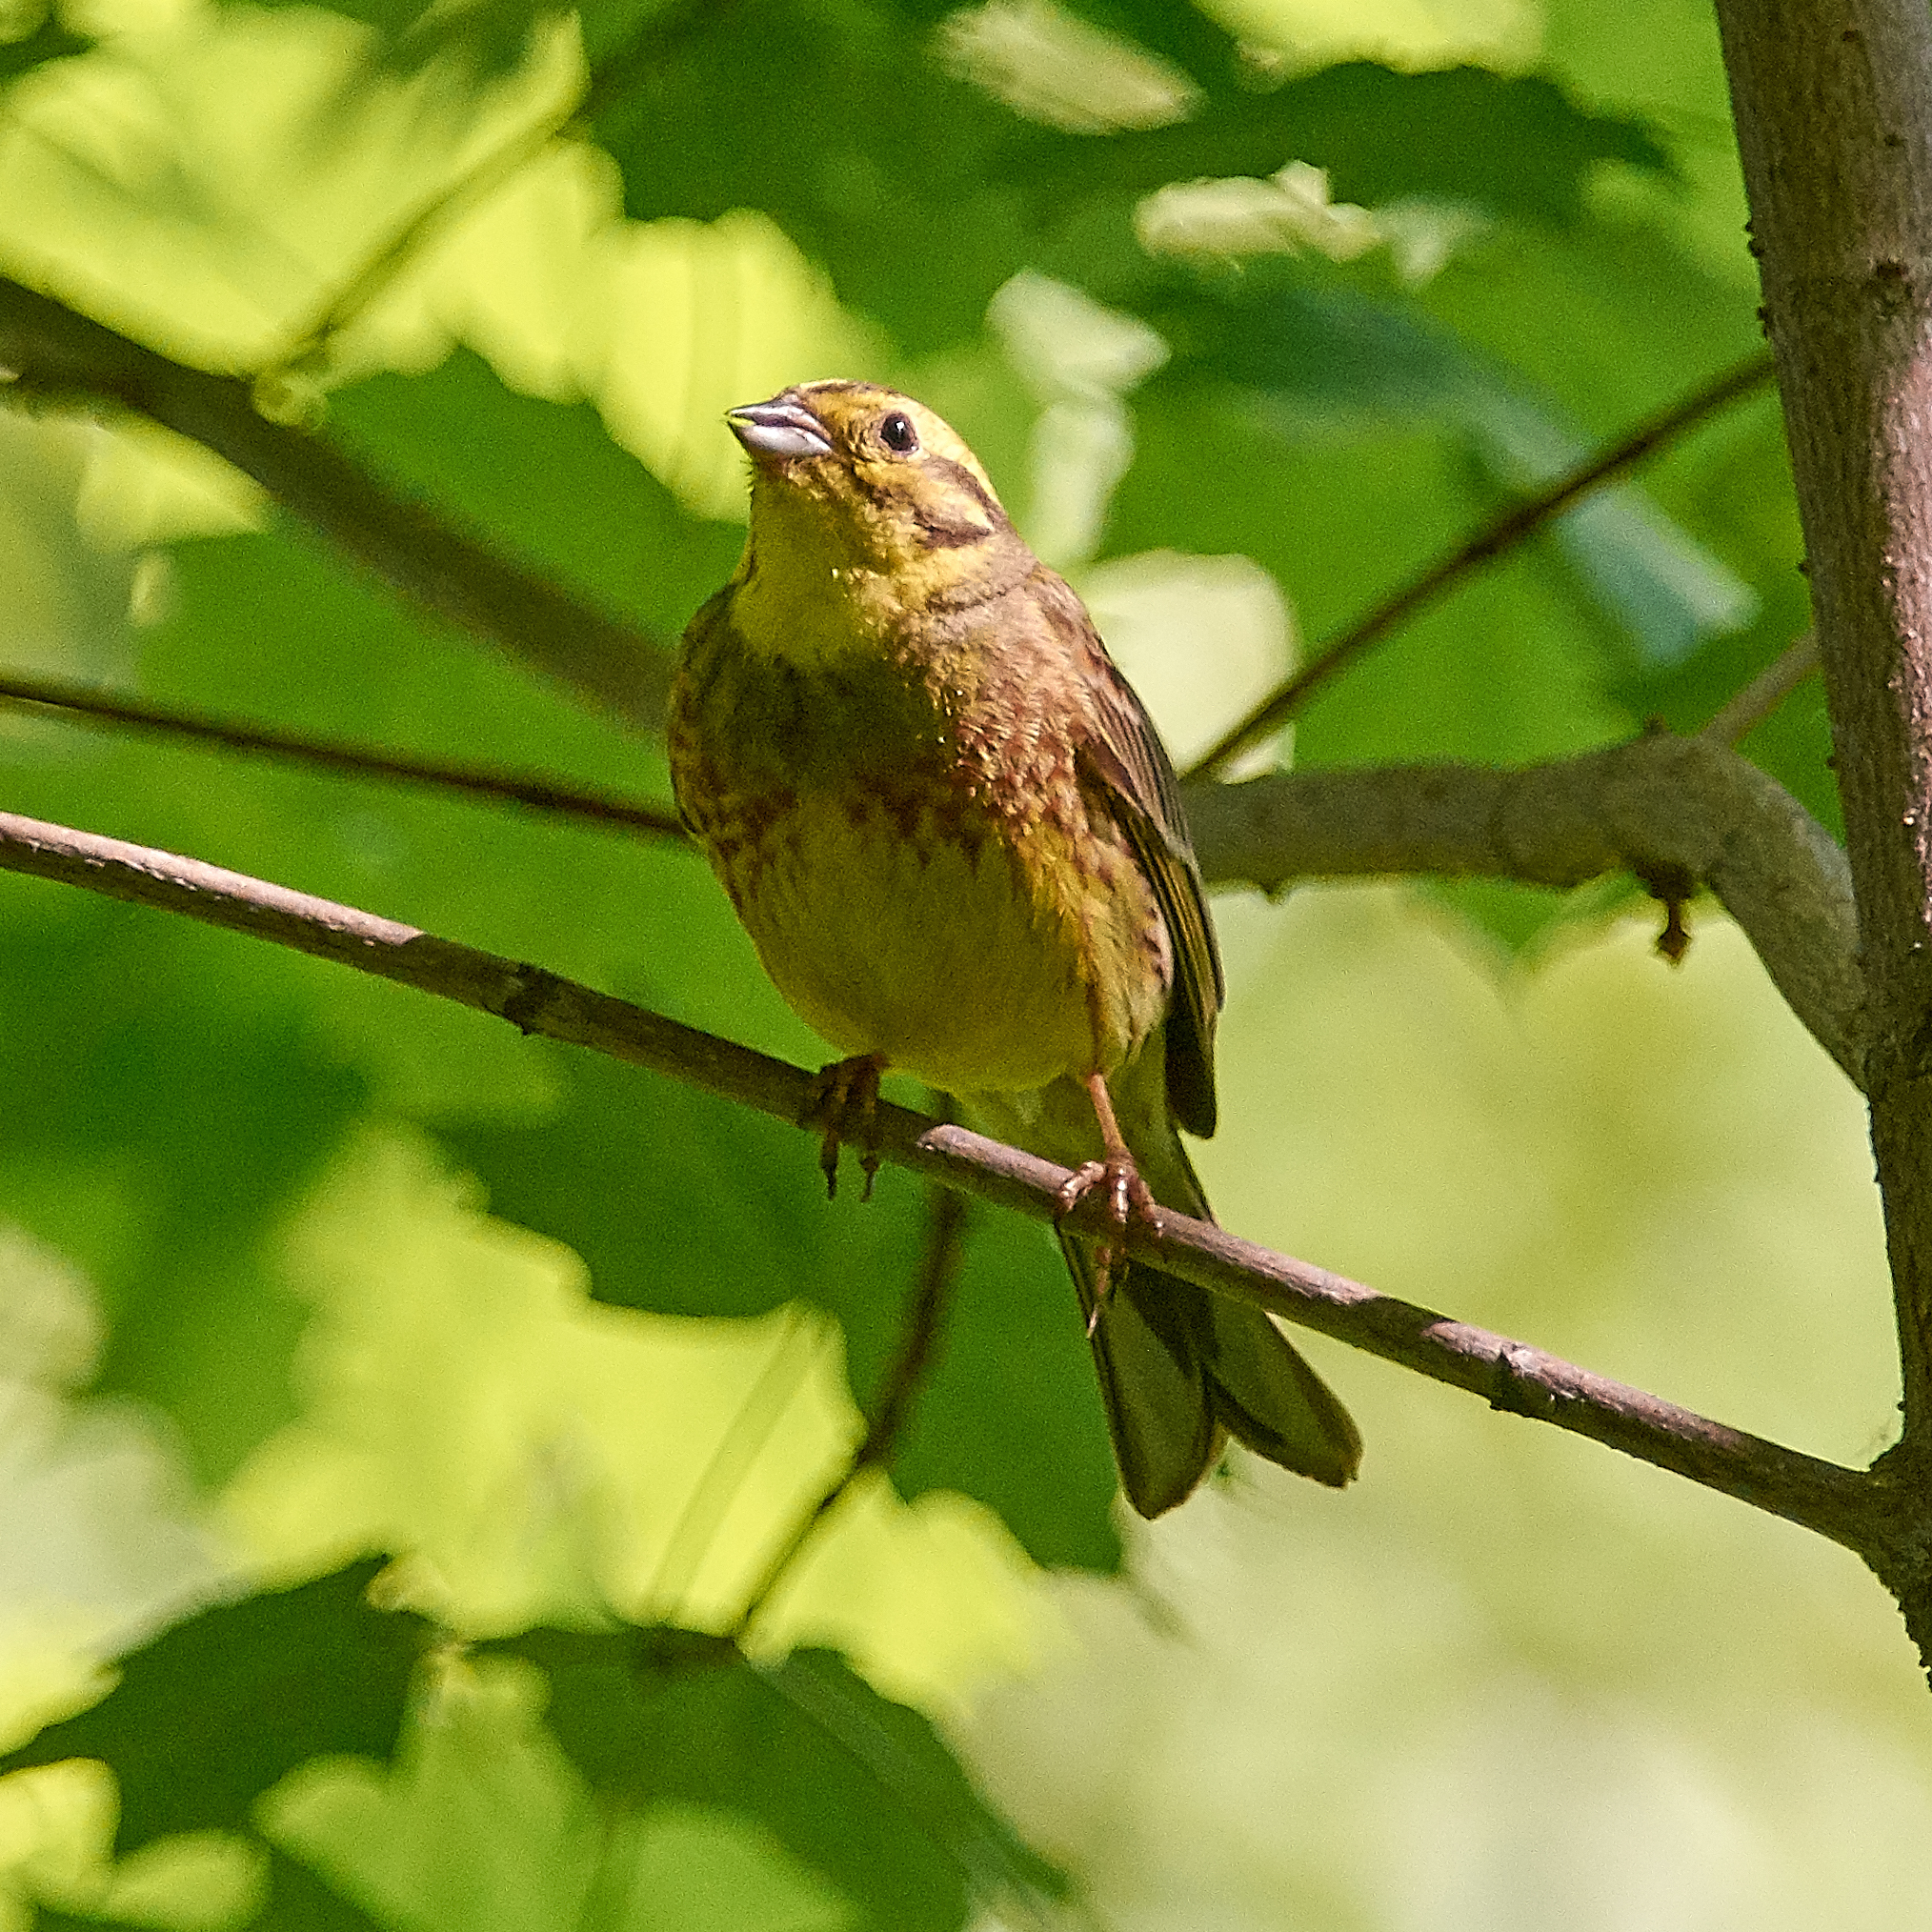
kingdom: Animalia
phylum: Chordata
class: Aves
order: Passeriformes
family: Emberizidae
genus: Emberiza
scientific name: Emberiza citrinella
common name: Yellowhammer
